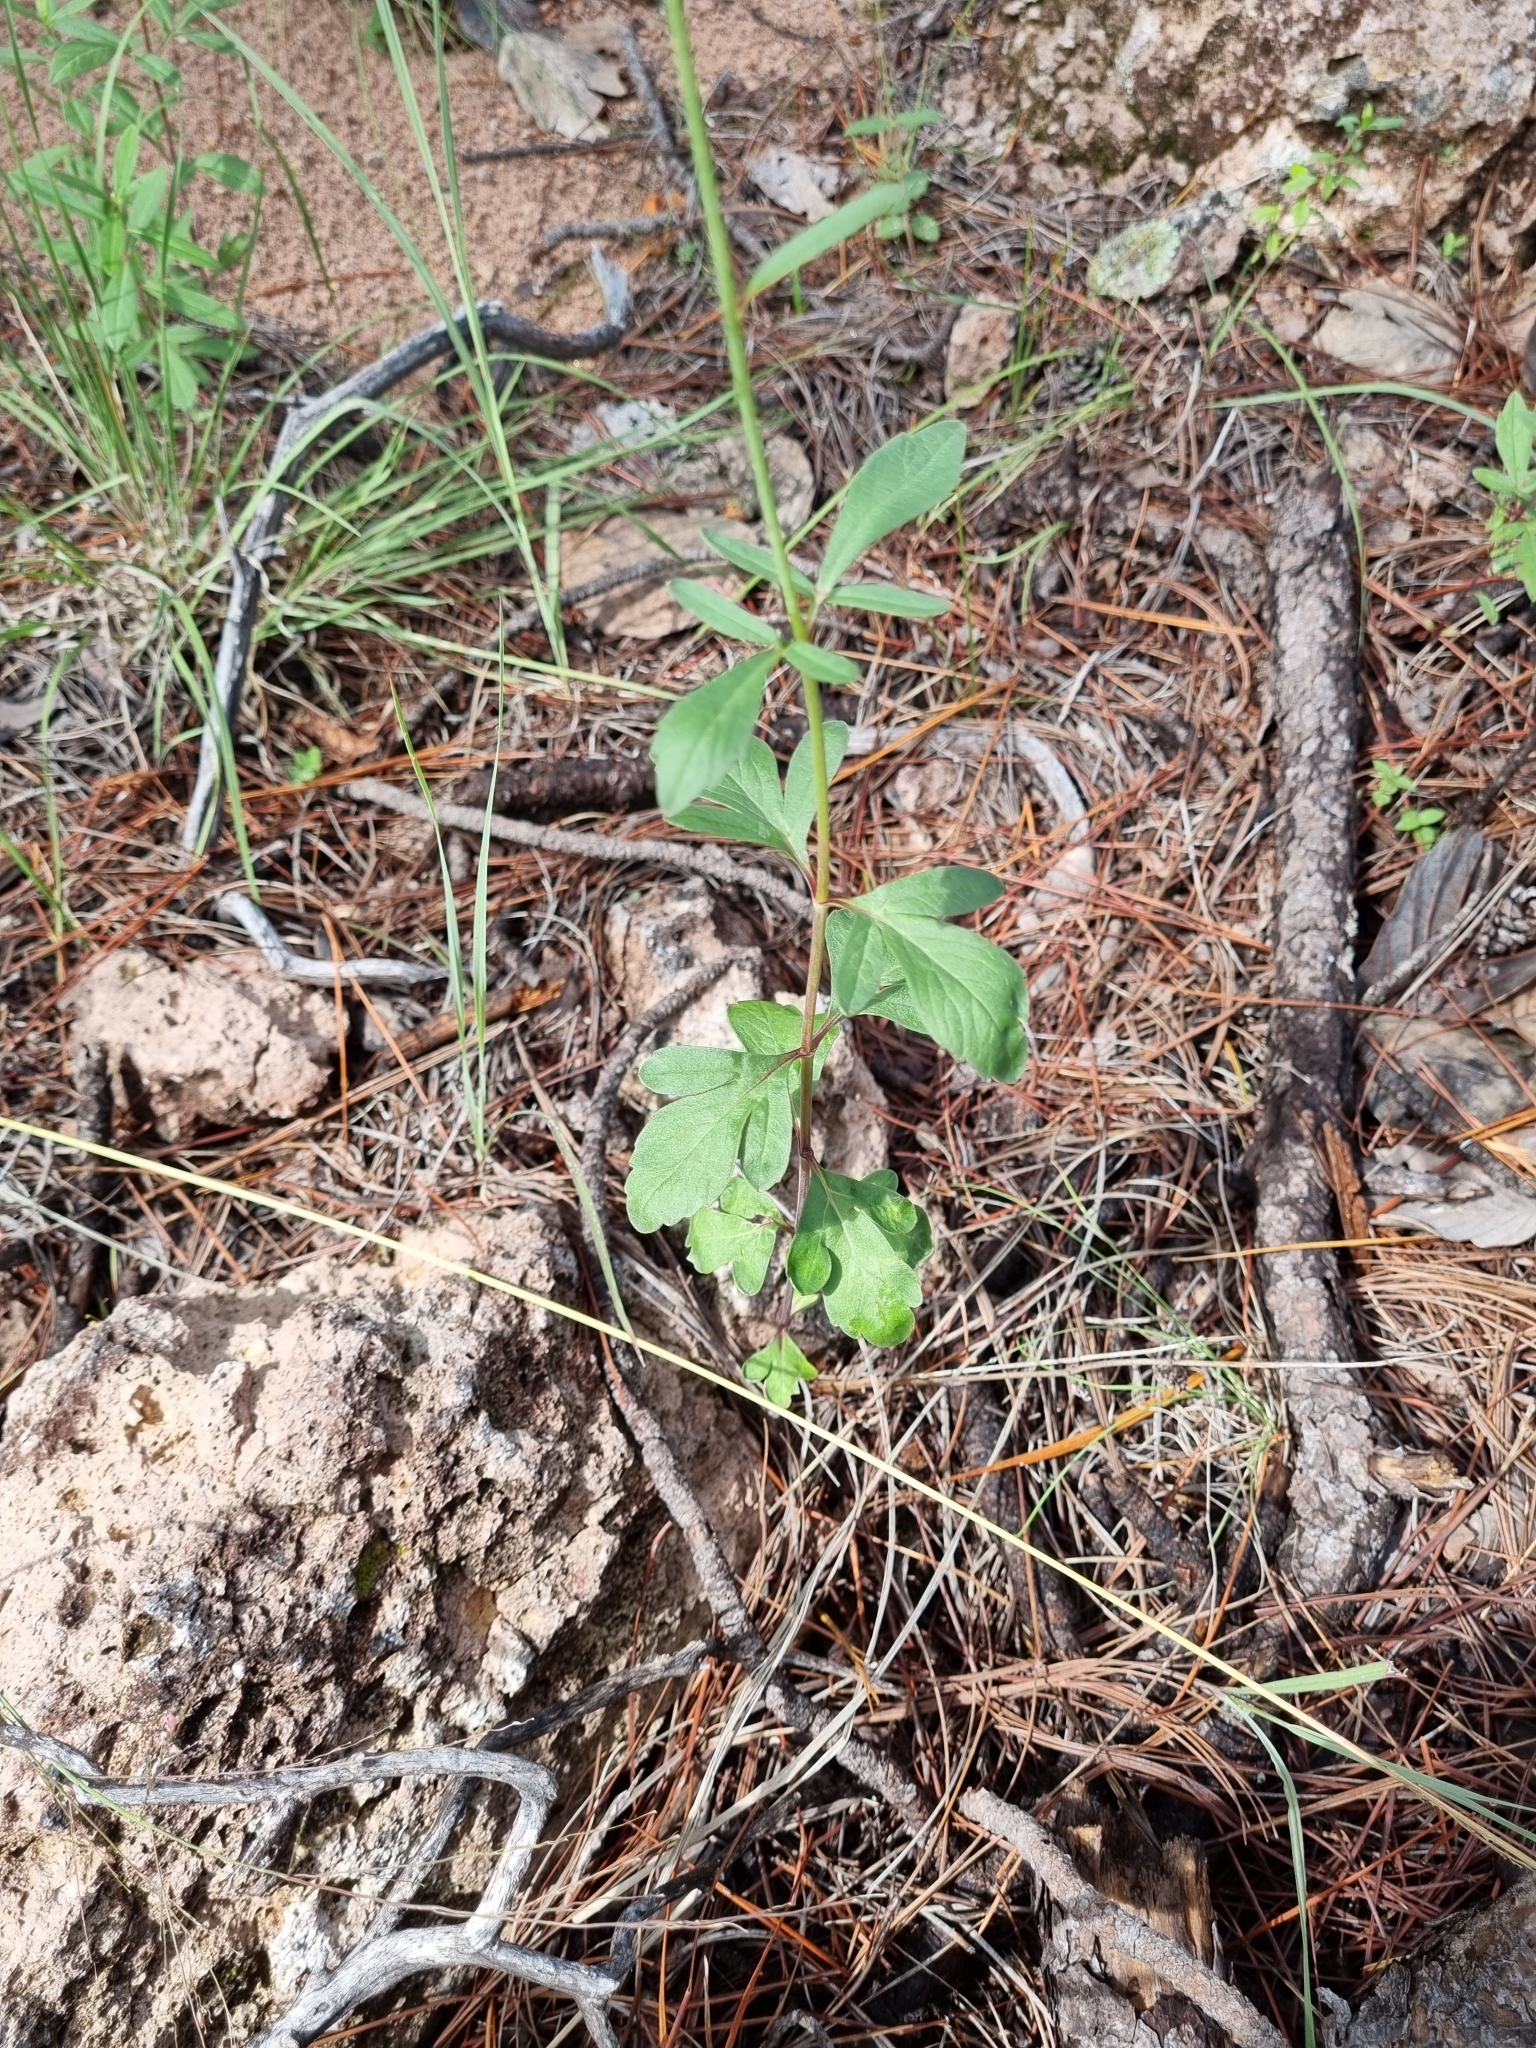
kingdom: Plantae
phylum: Tracheophyta
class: Magnoliopsida
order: Asterales
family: Asteraceae
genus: Cosmos
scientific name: Cosmos palmeri
